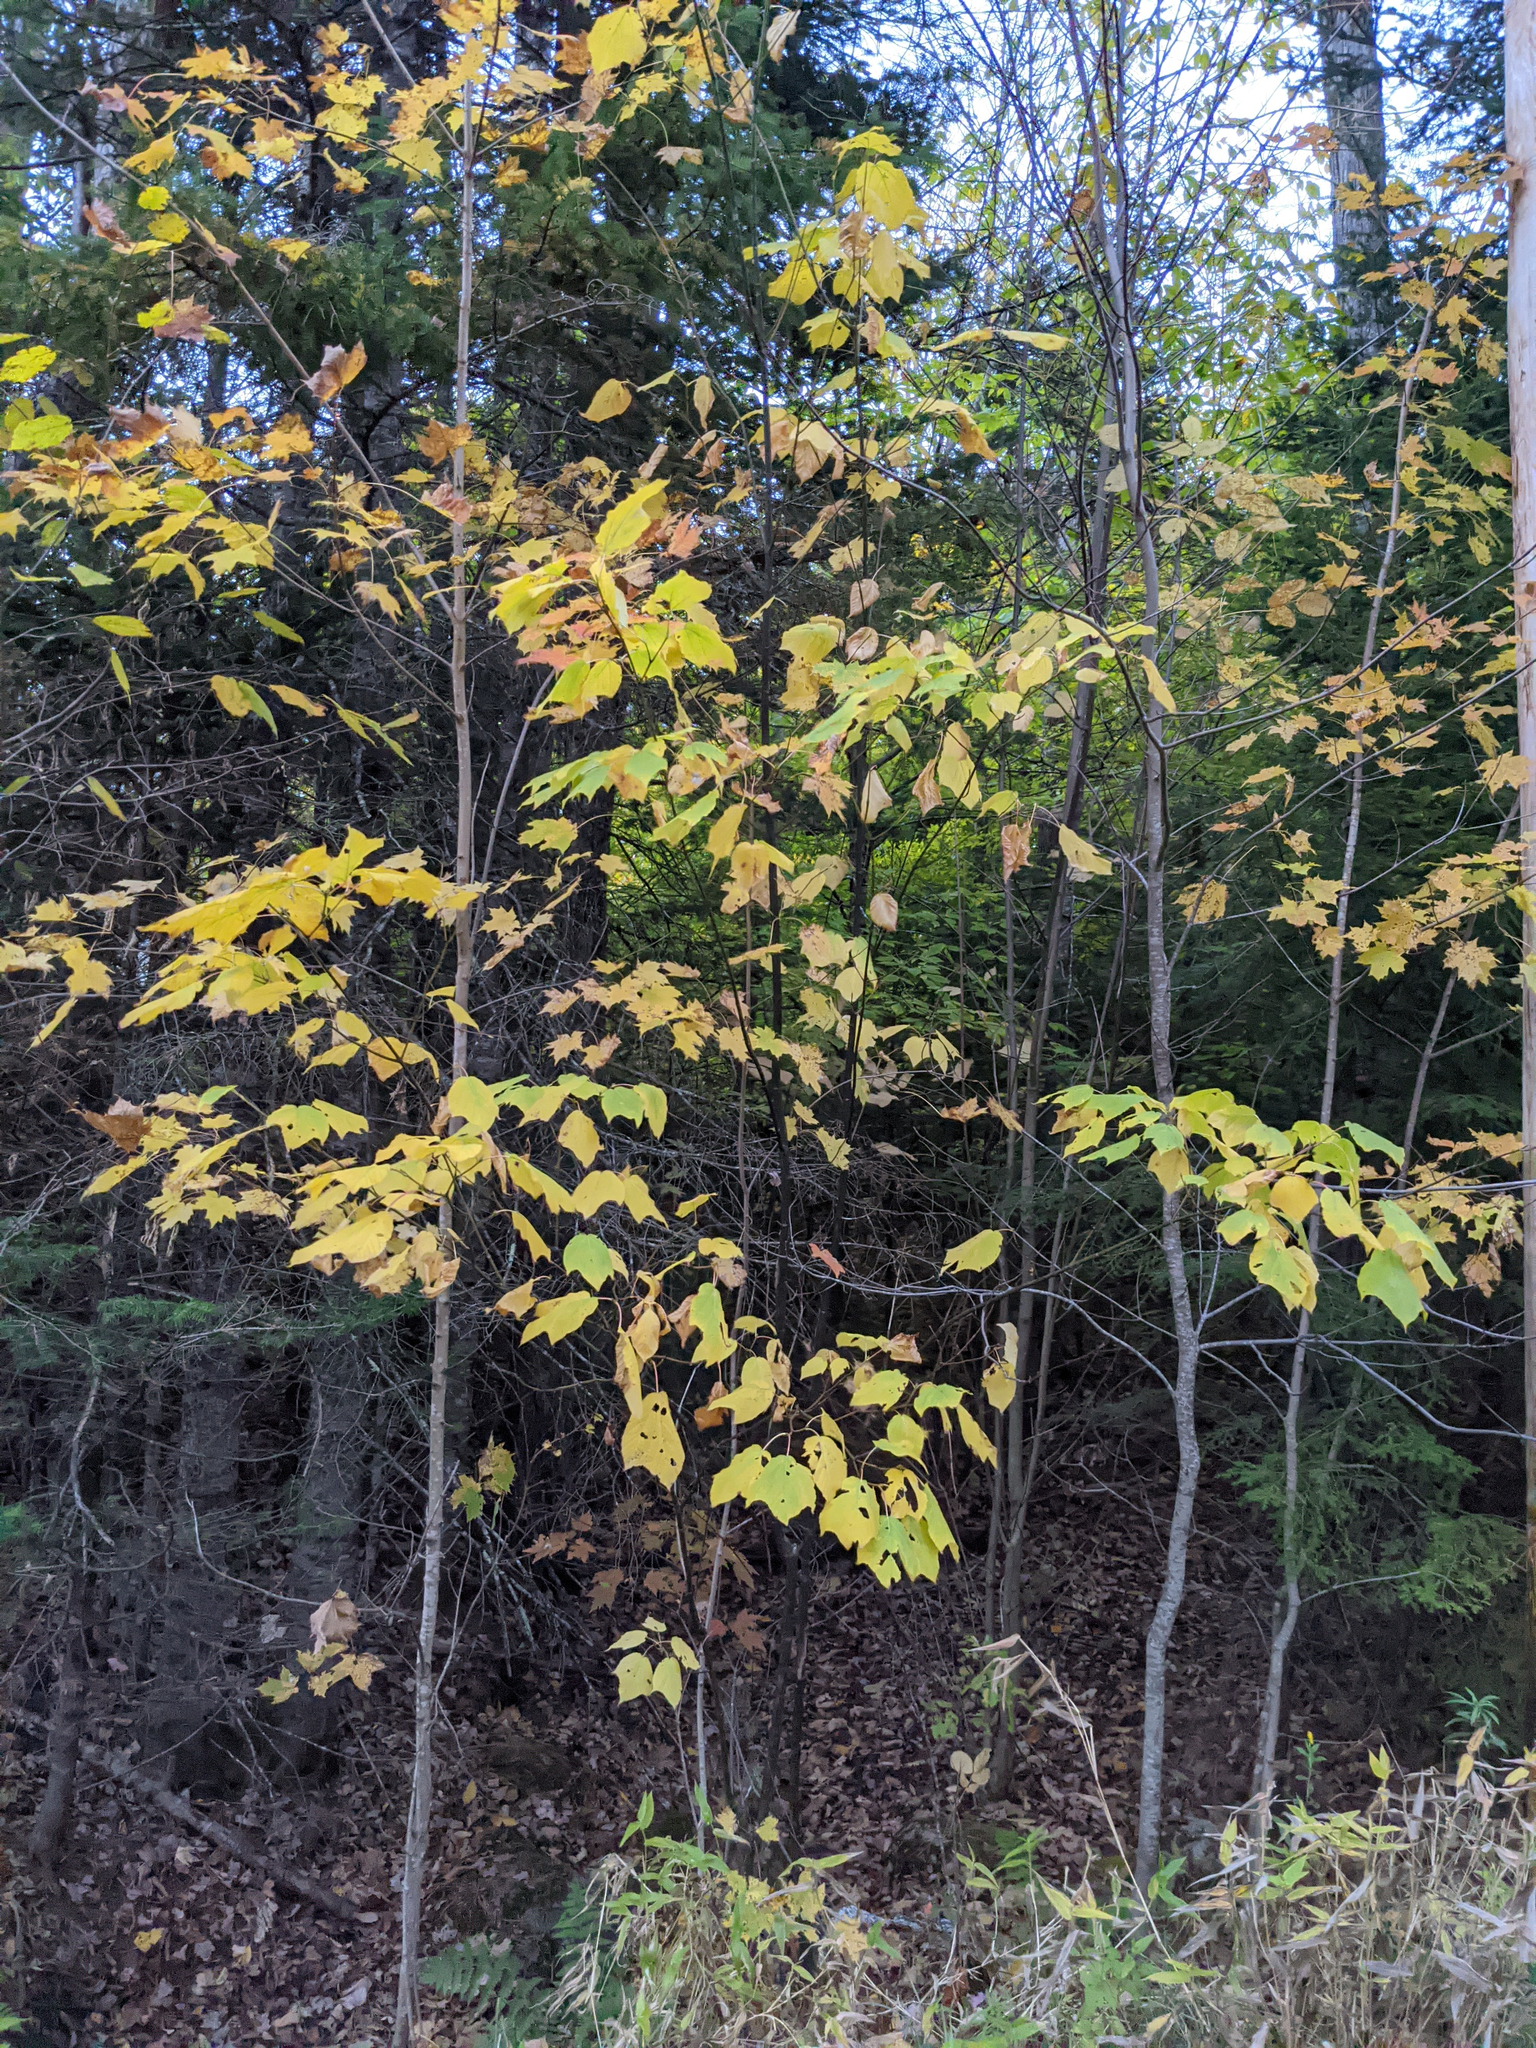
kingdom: Plantae
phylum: Tracheophyta
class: Magnoliopsida
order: Sapindales
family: Sapindaceae
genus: Acer
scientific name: Acer pensylvanicum
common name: Moosewood
